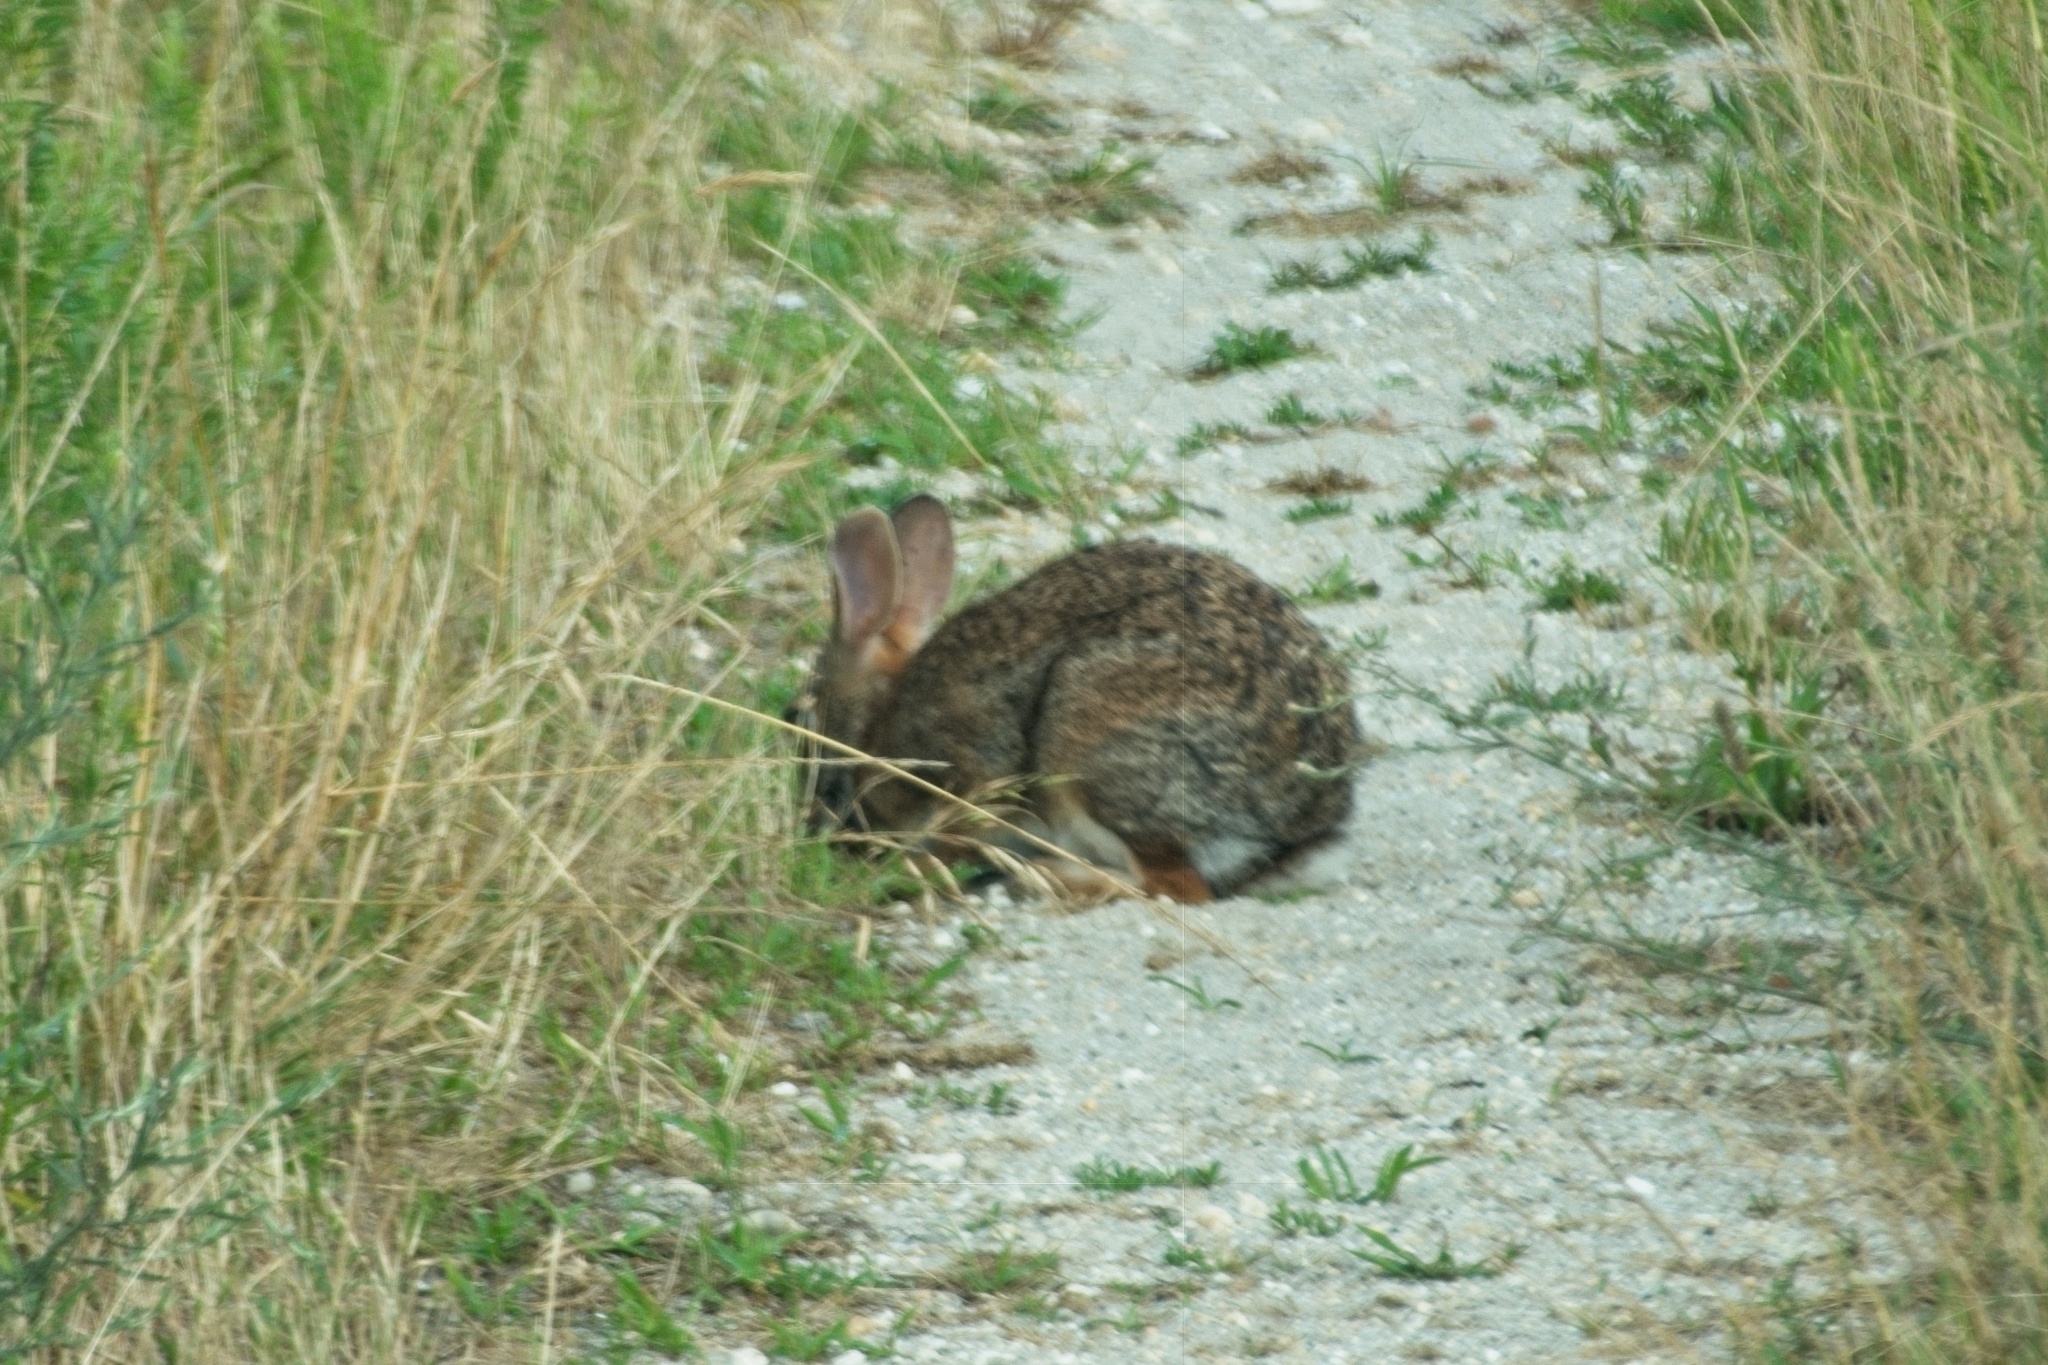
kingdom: Animalia
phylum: Chordata
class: Mammalia
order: Lagomorpha
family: Leporidae
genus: Sylvilagus
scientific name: Sylvilagus floridanus
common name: Eastern cottontail
